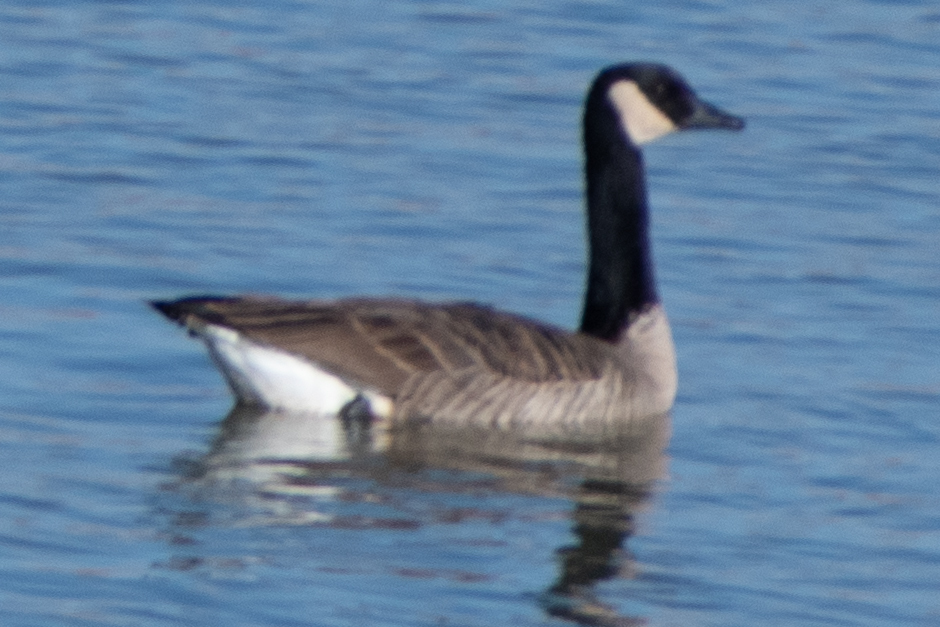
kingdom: Animalia
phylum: Chordata
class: Aves
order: Anseriformes
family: Anatidae
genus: Branta
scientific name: Branta canadensis
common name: Canada goose
